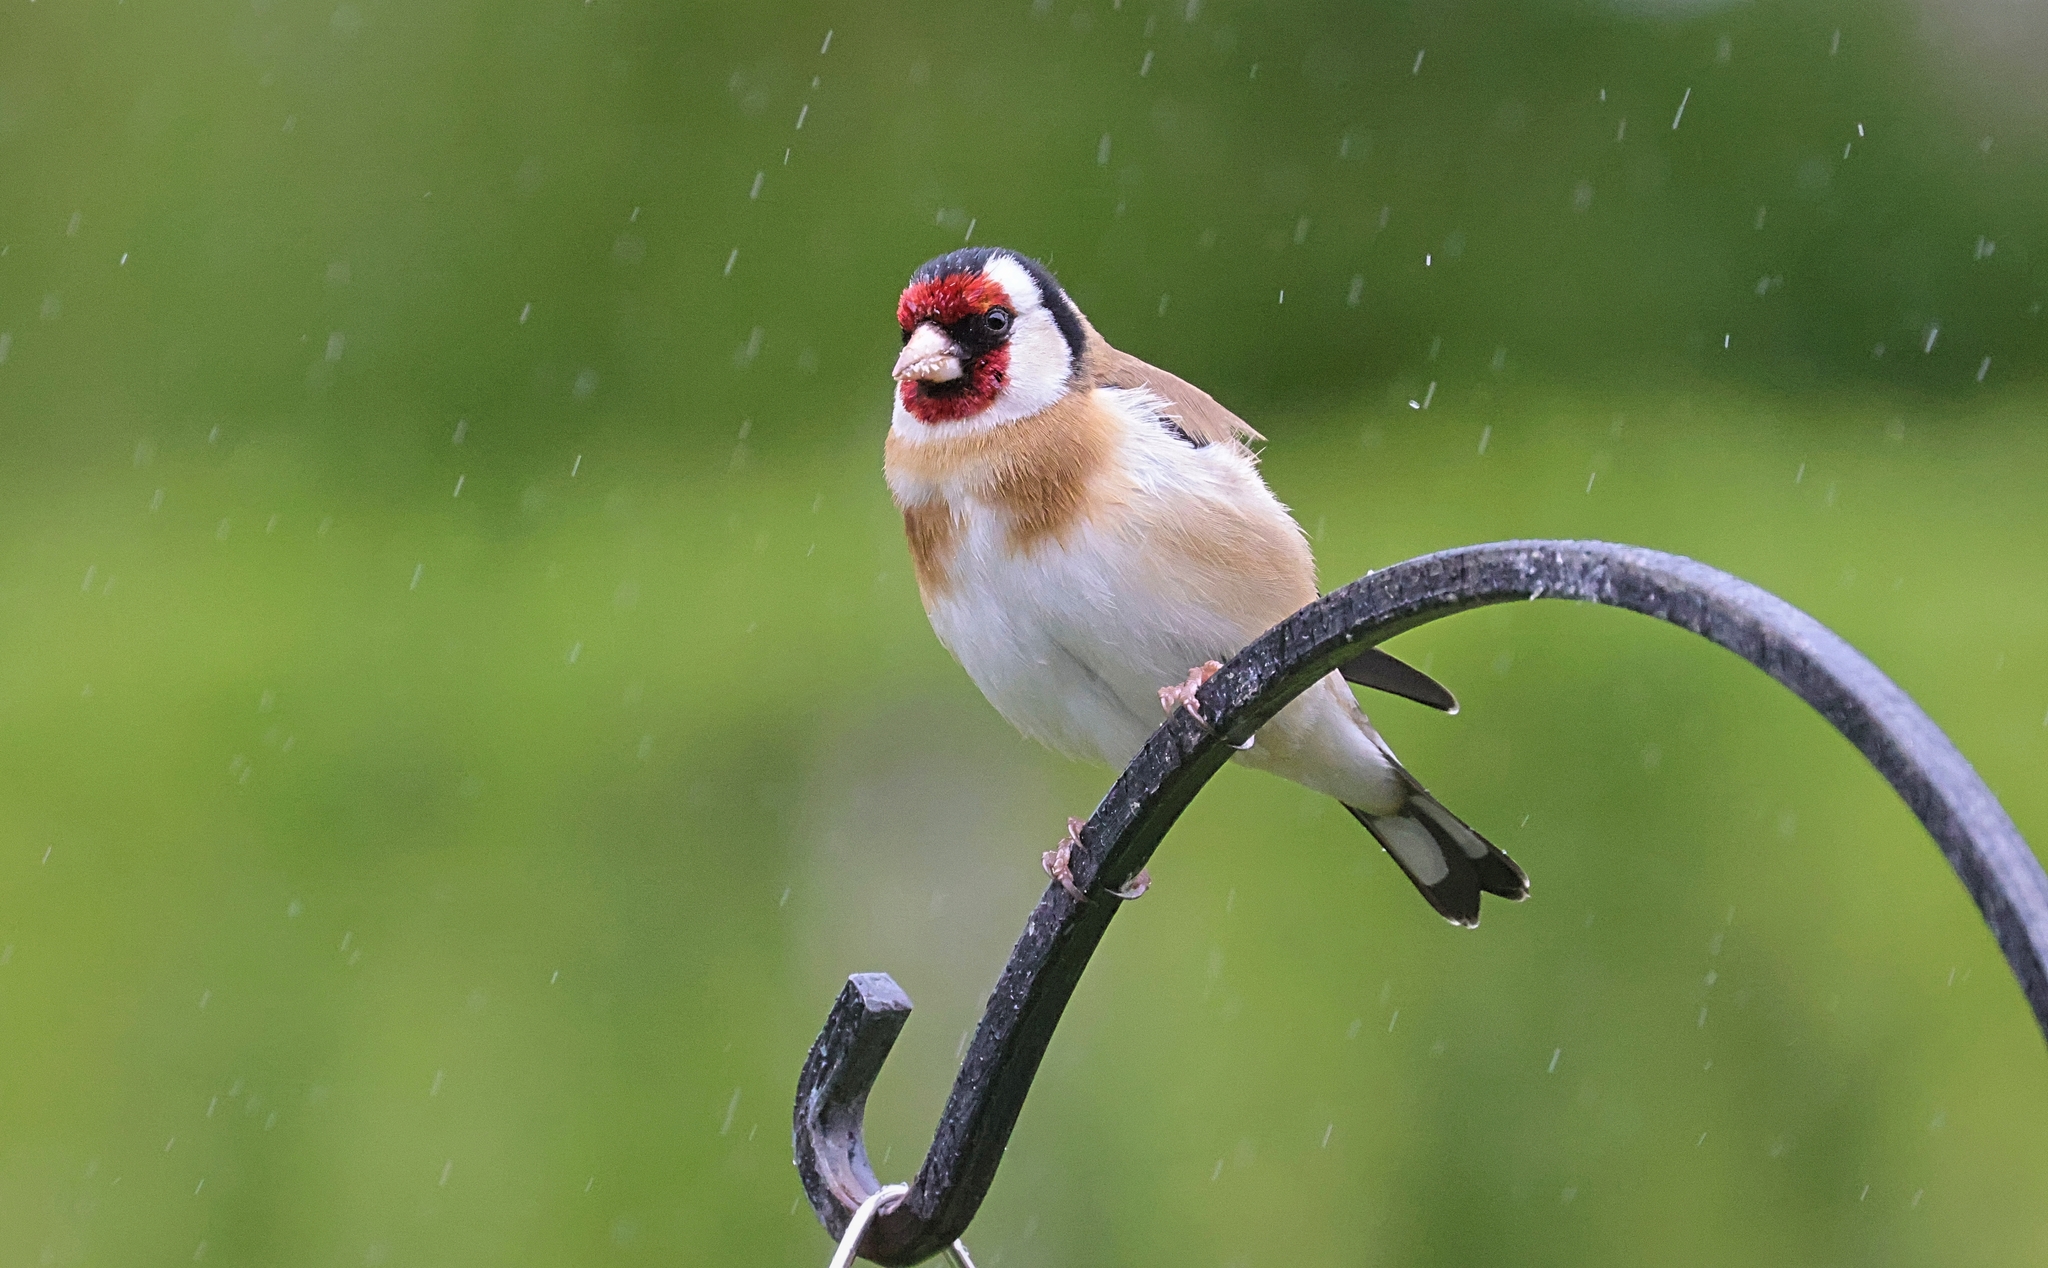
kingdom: Animalia
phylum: Chordata
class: Aves
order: Passeriformes
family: Fringillidae
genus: Carduelis
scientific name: Carduelis carduelis
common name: European goldfinch
